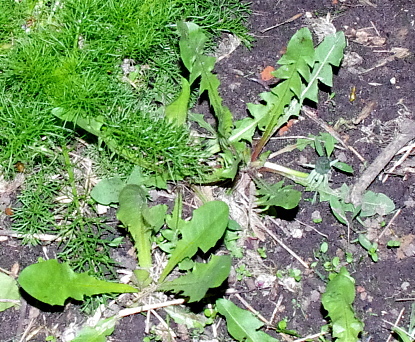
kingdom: Plantae
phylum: Tracheophyta
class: Magnoliopsida
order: Asterales
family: Asteraceae
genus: Taraxacum
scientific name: Taraxacum officinale
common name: Common dandelion
